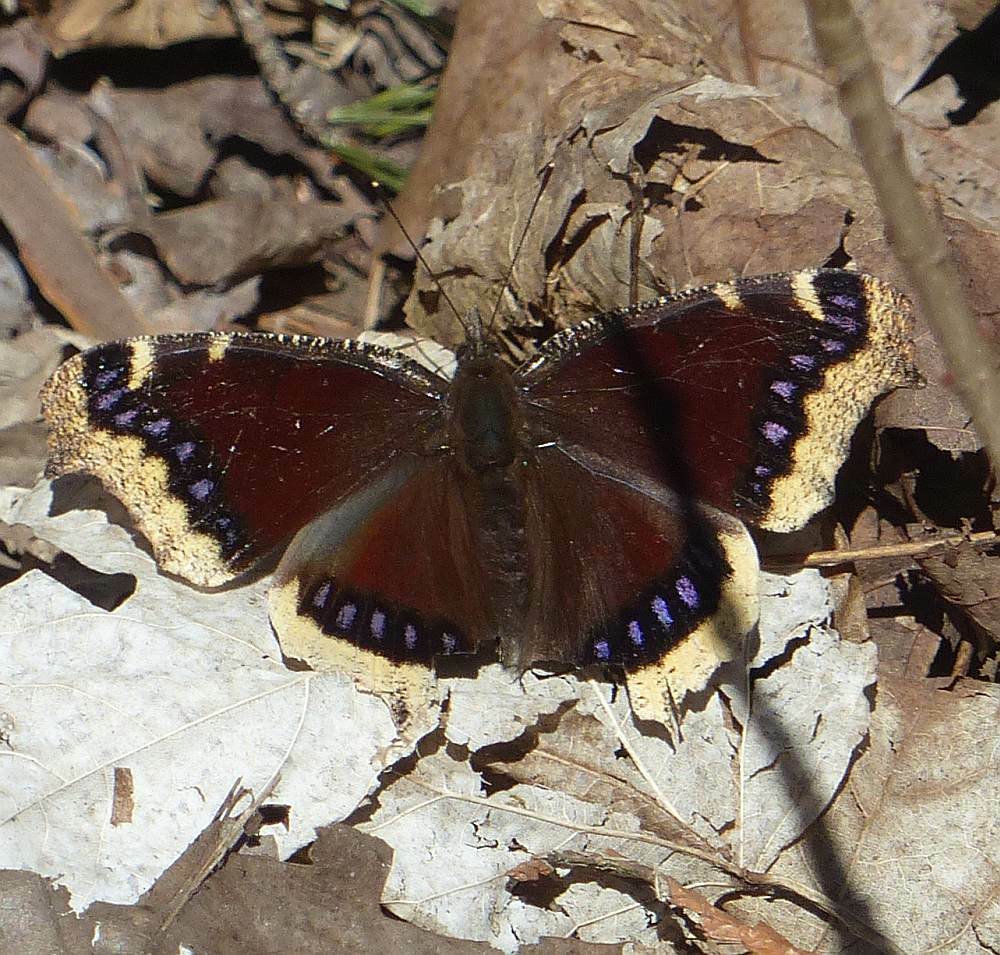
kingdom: Animalia
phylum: Arthropoda
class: Insecta
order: Lepidoptera
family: Nymphalidae
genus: Nymphalis
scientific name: Nymphalis antiopa
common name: Camberwell beauty
